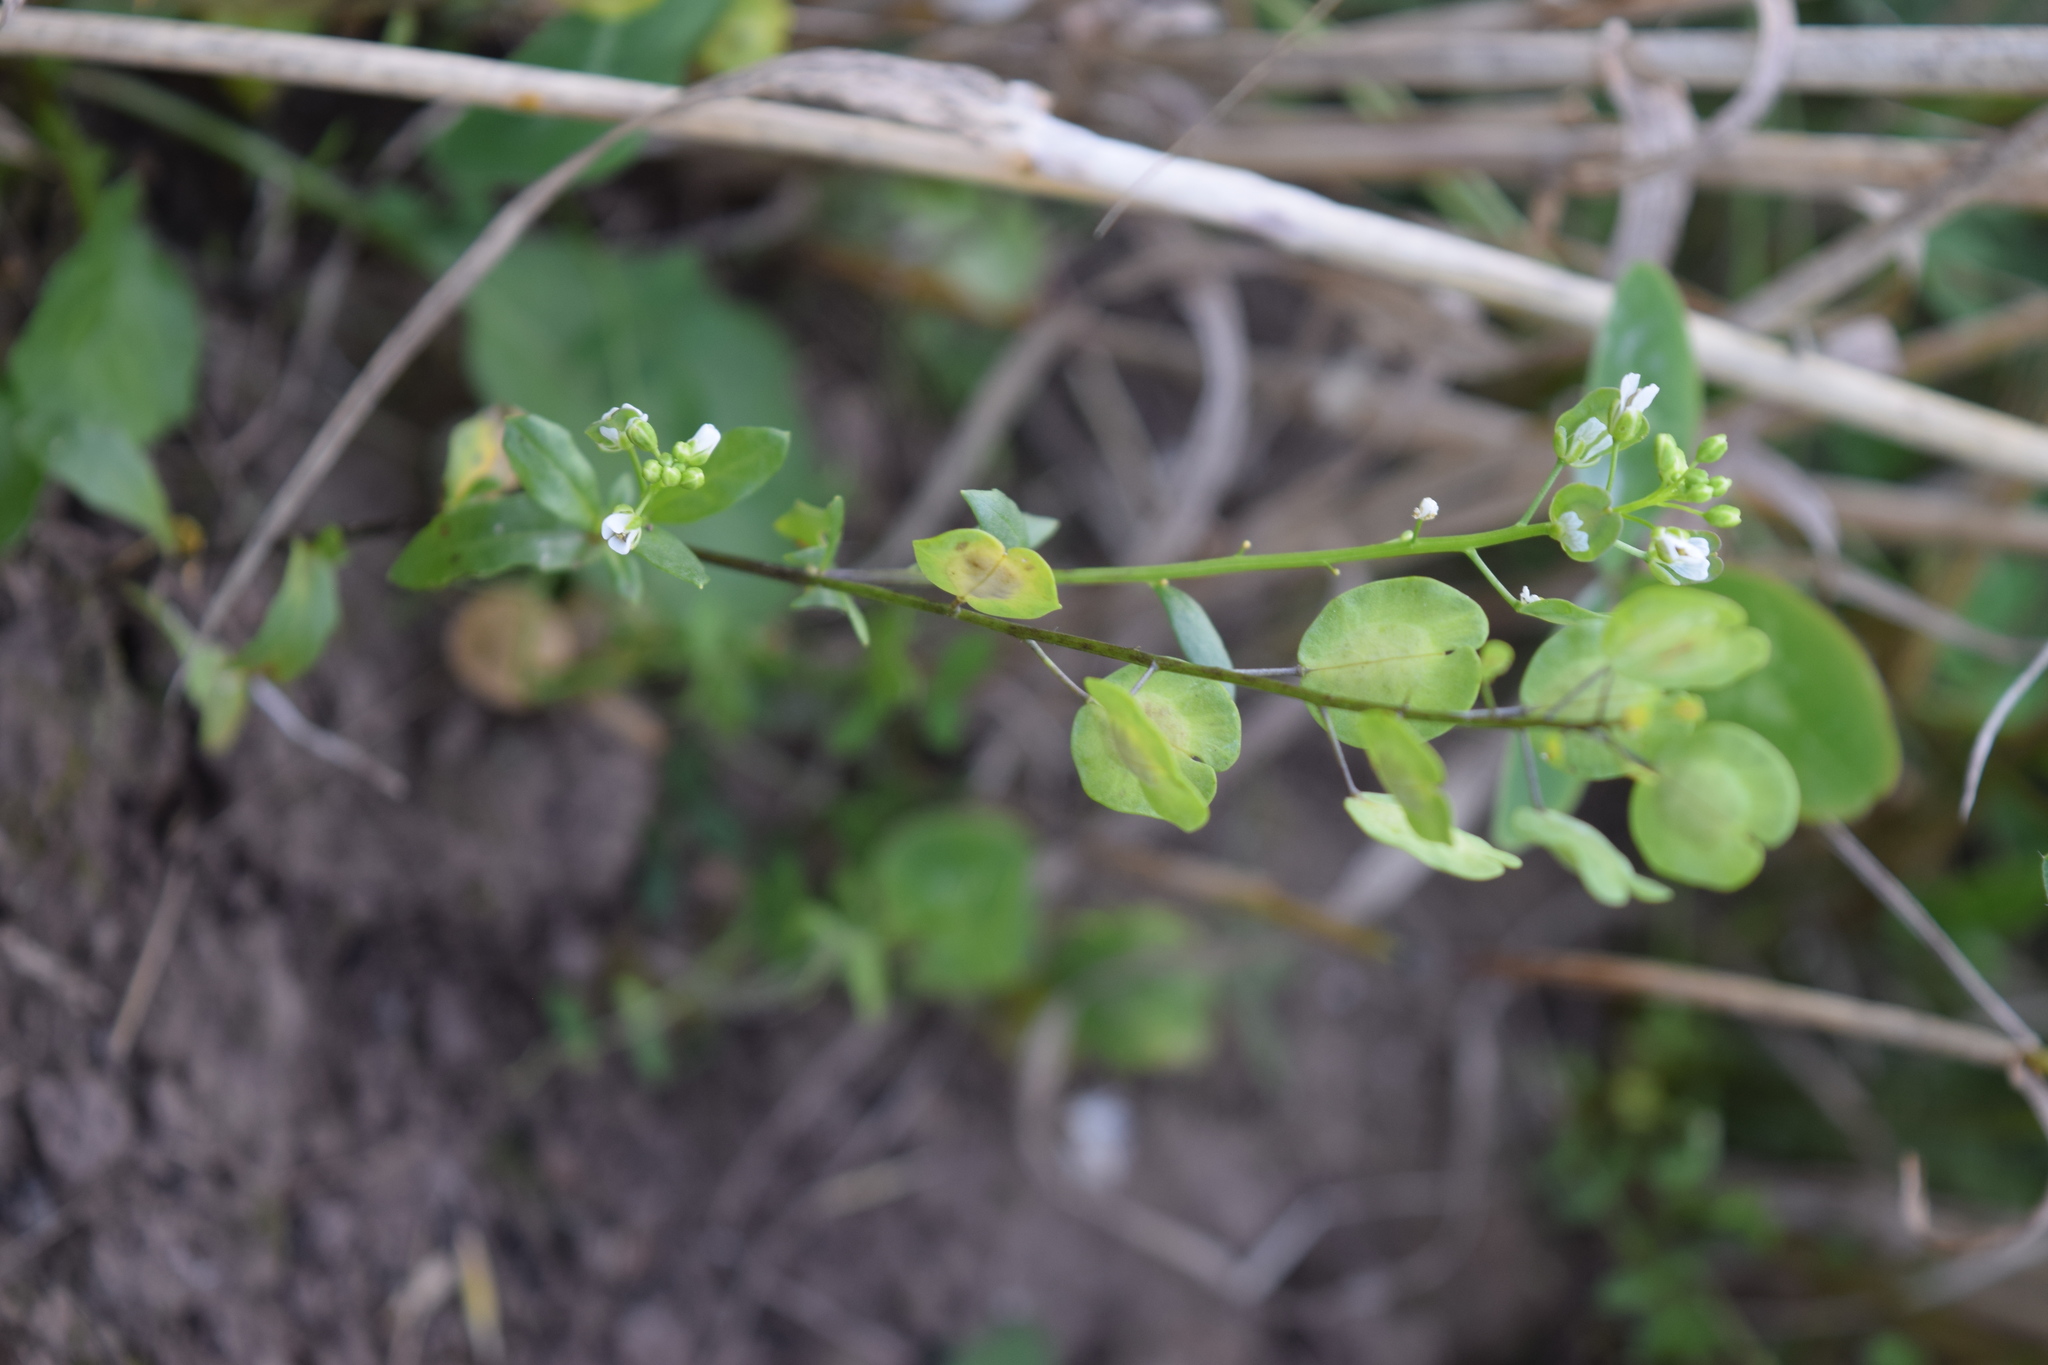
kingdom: Plantae
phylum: Tracheophyta
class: Magnoliopsida
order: Brassicales
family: Brassicaceae
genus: Thlaspi
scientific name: Thlaspi arvense
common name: Field pennycress
